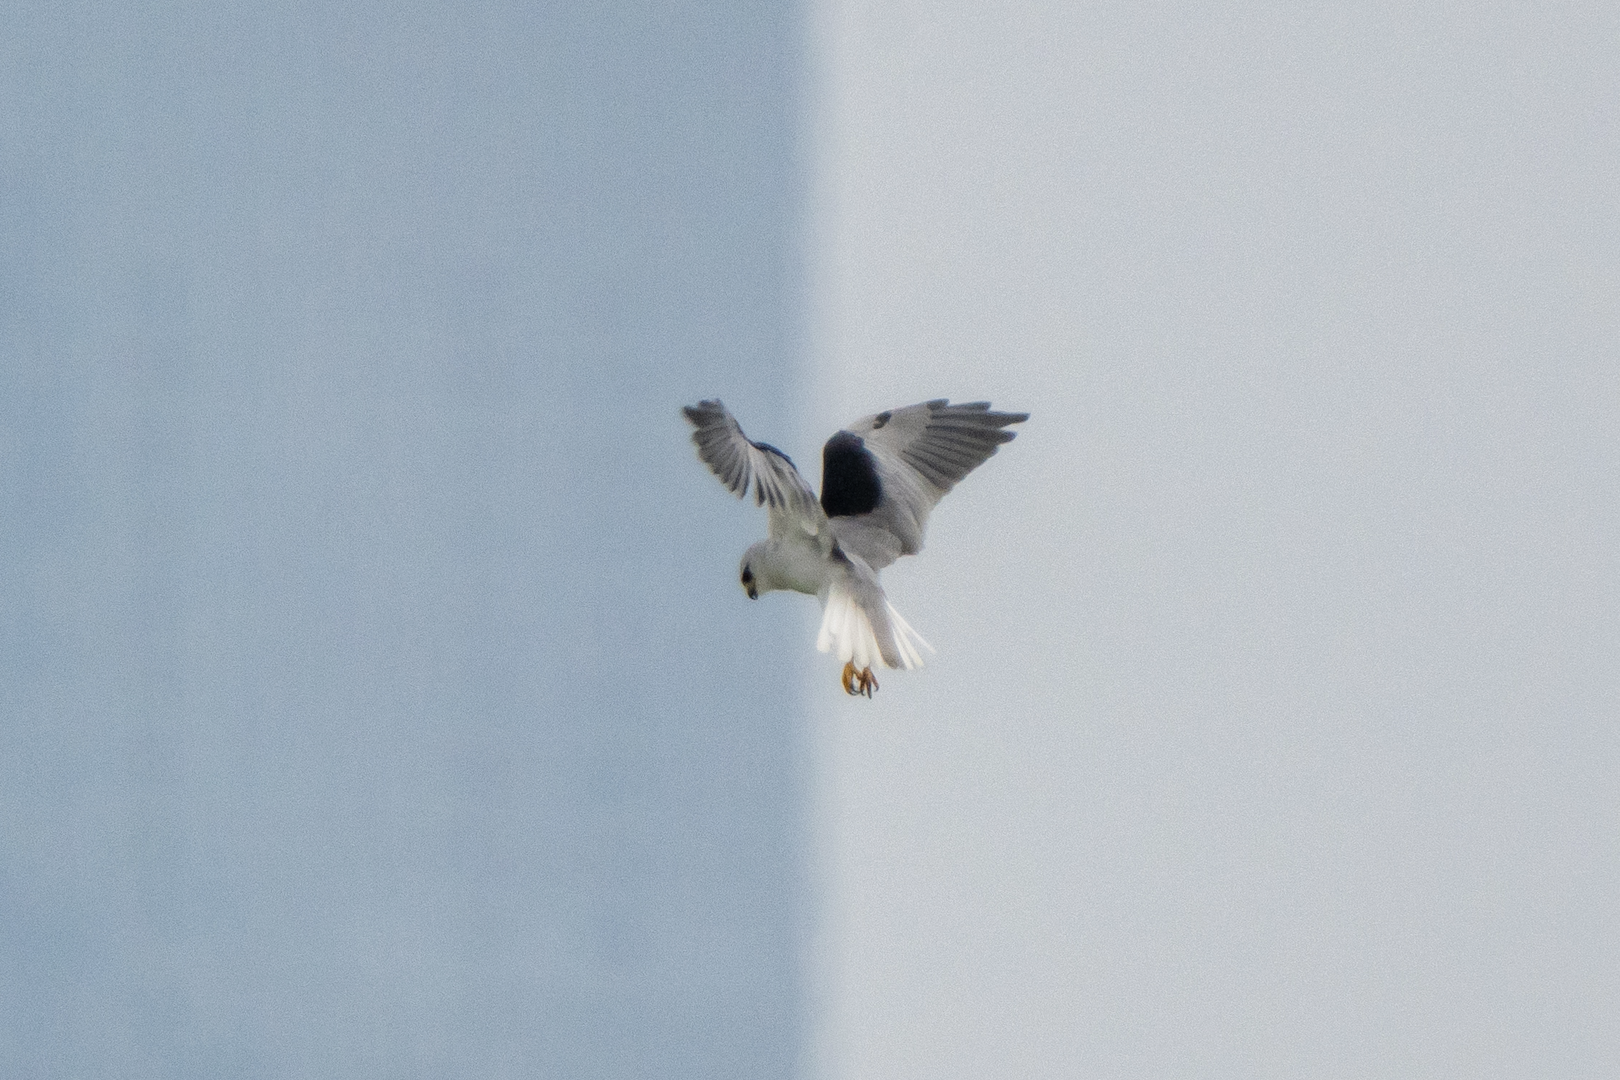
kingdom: Animalia
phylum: Chordata
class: Aves
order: Accipitriformes
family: Accipitridae
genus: Elanus
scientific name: Elanus caeruleus
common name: Black-winged kite
